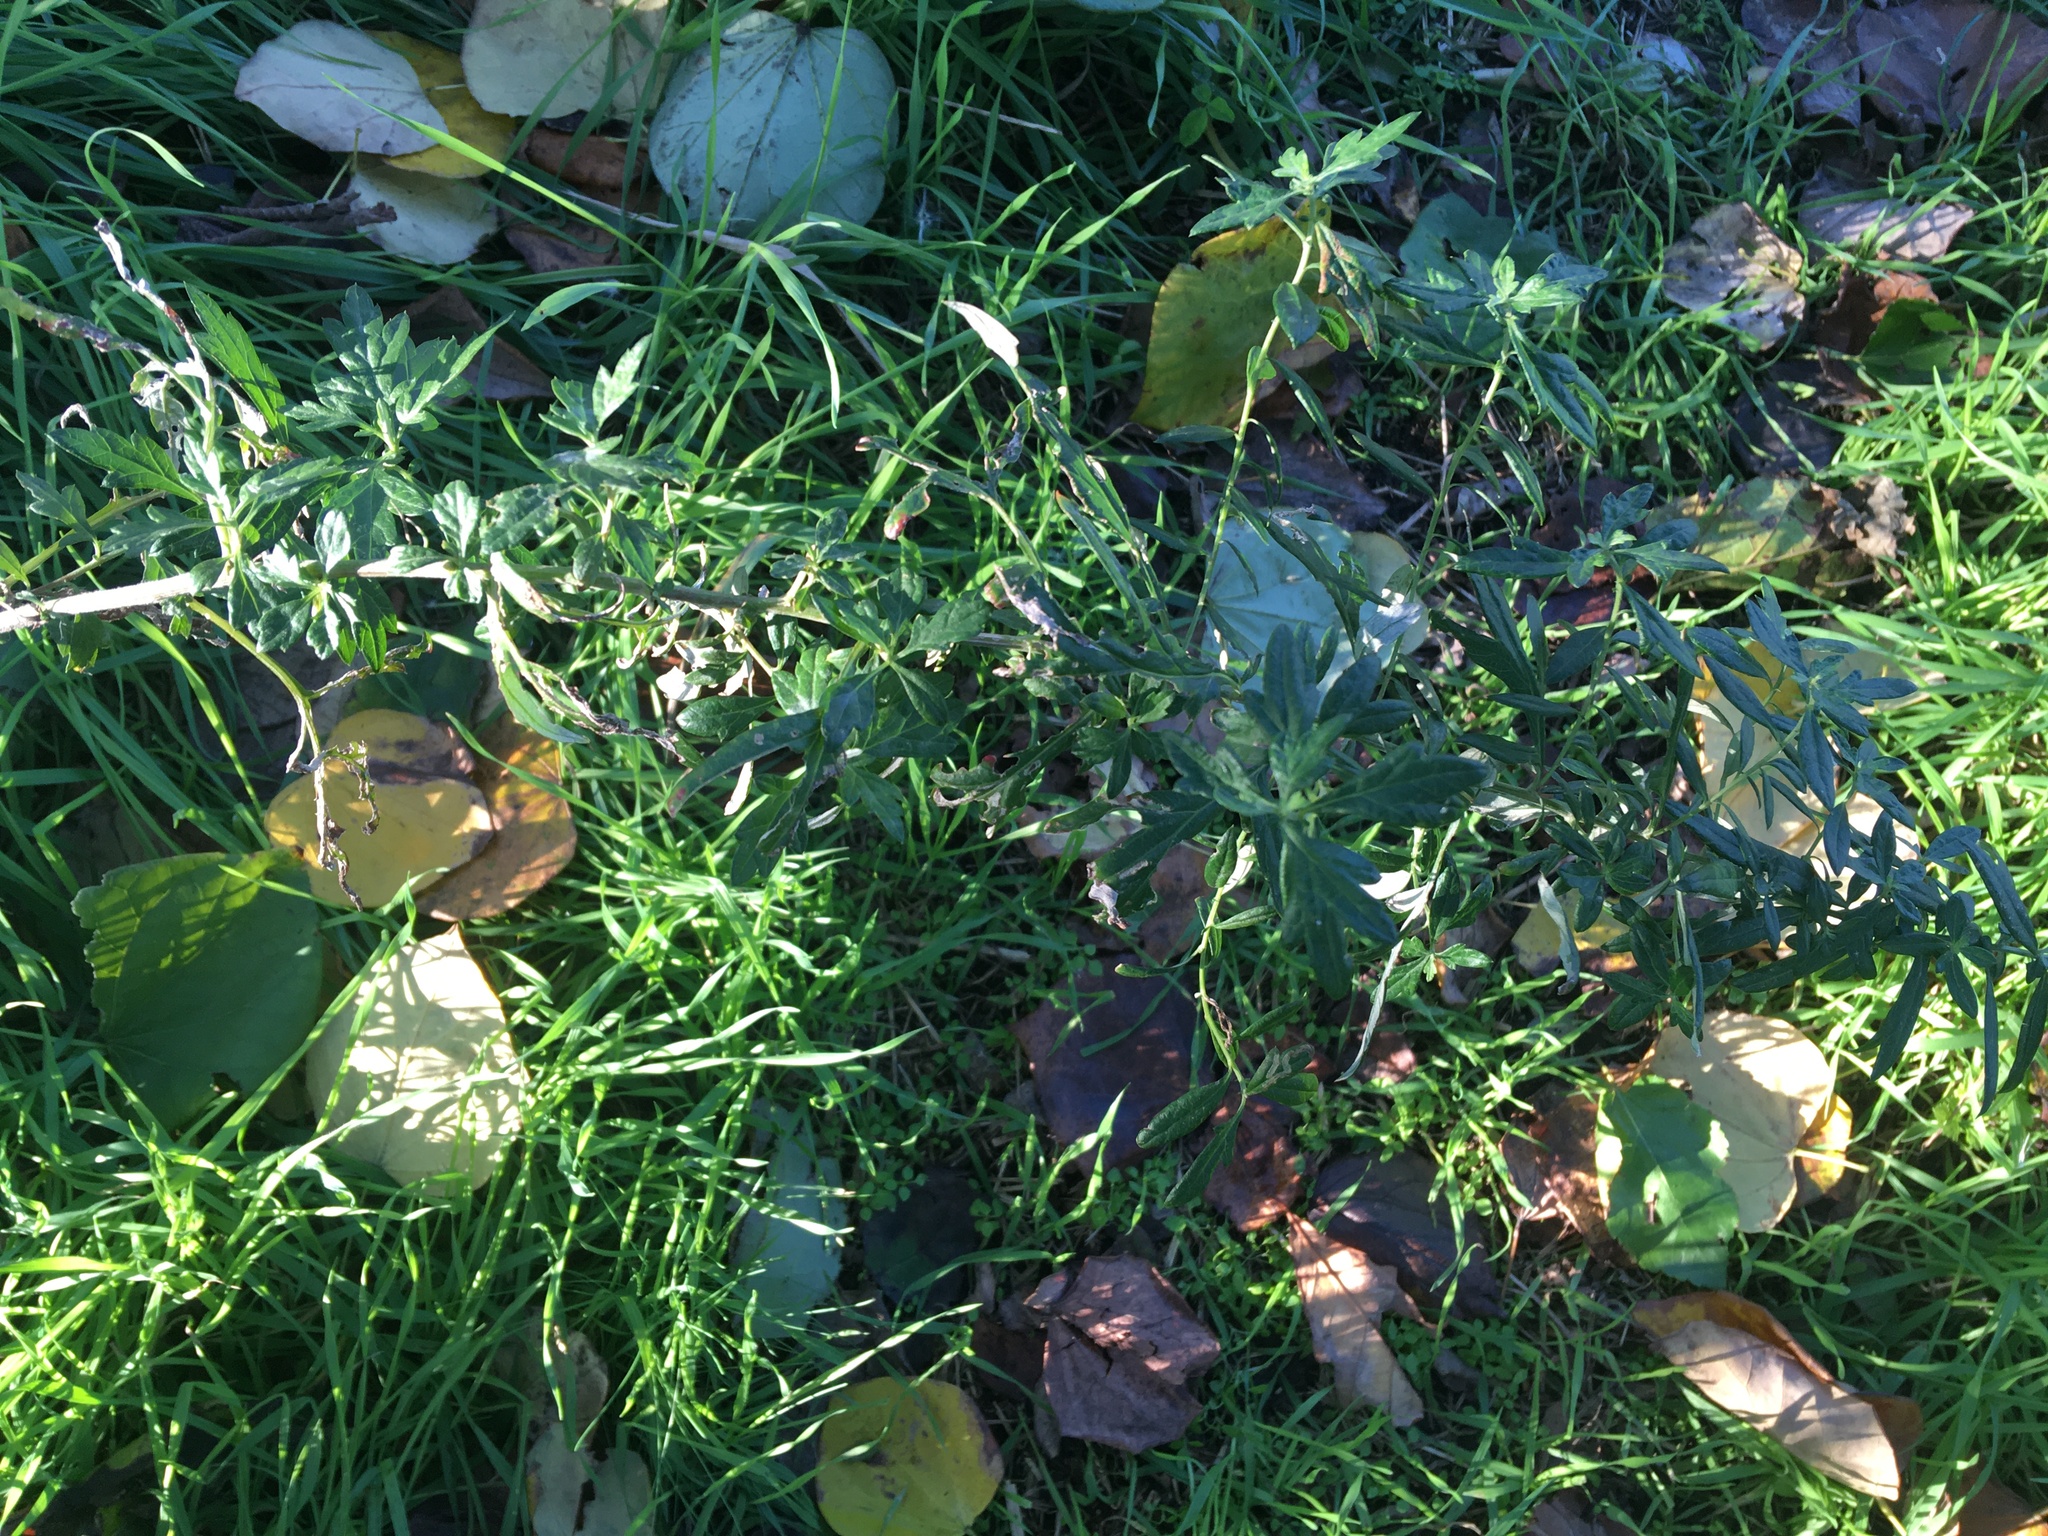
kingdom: Plantae
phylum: Tracheophyta
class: Magnoliopsida
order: Asterales
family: Asteraceae
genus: Artemisia
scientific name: Artemisia vulgaris
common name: Mugwort
